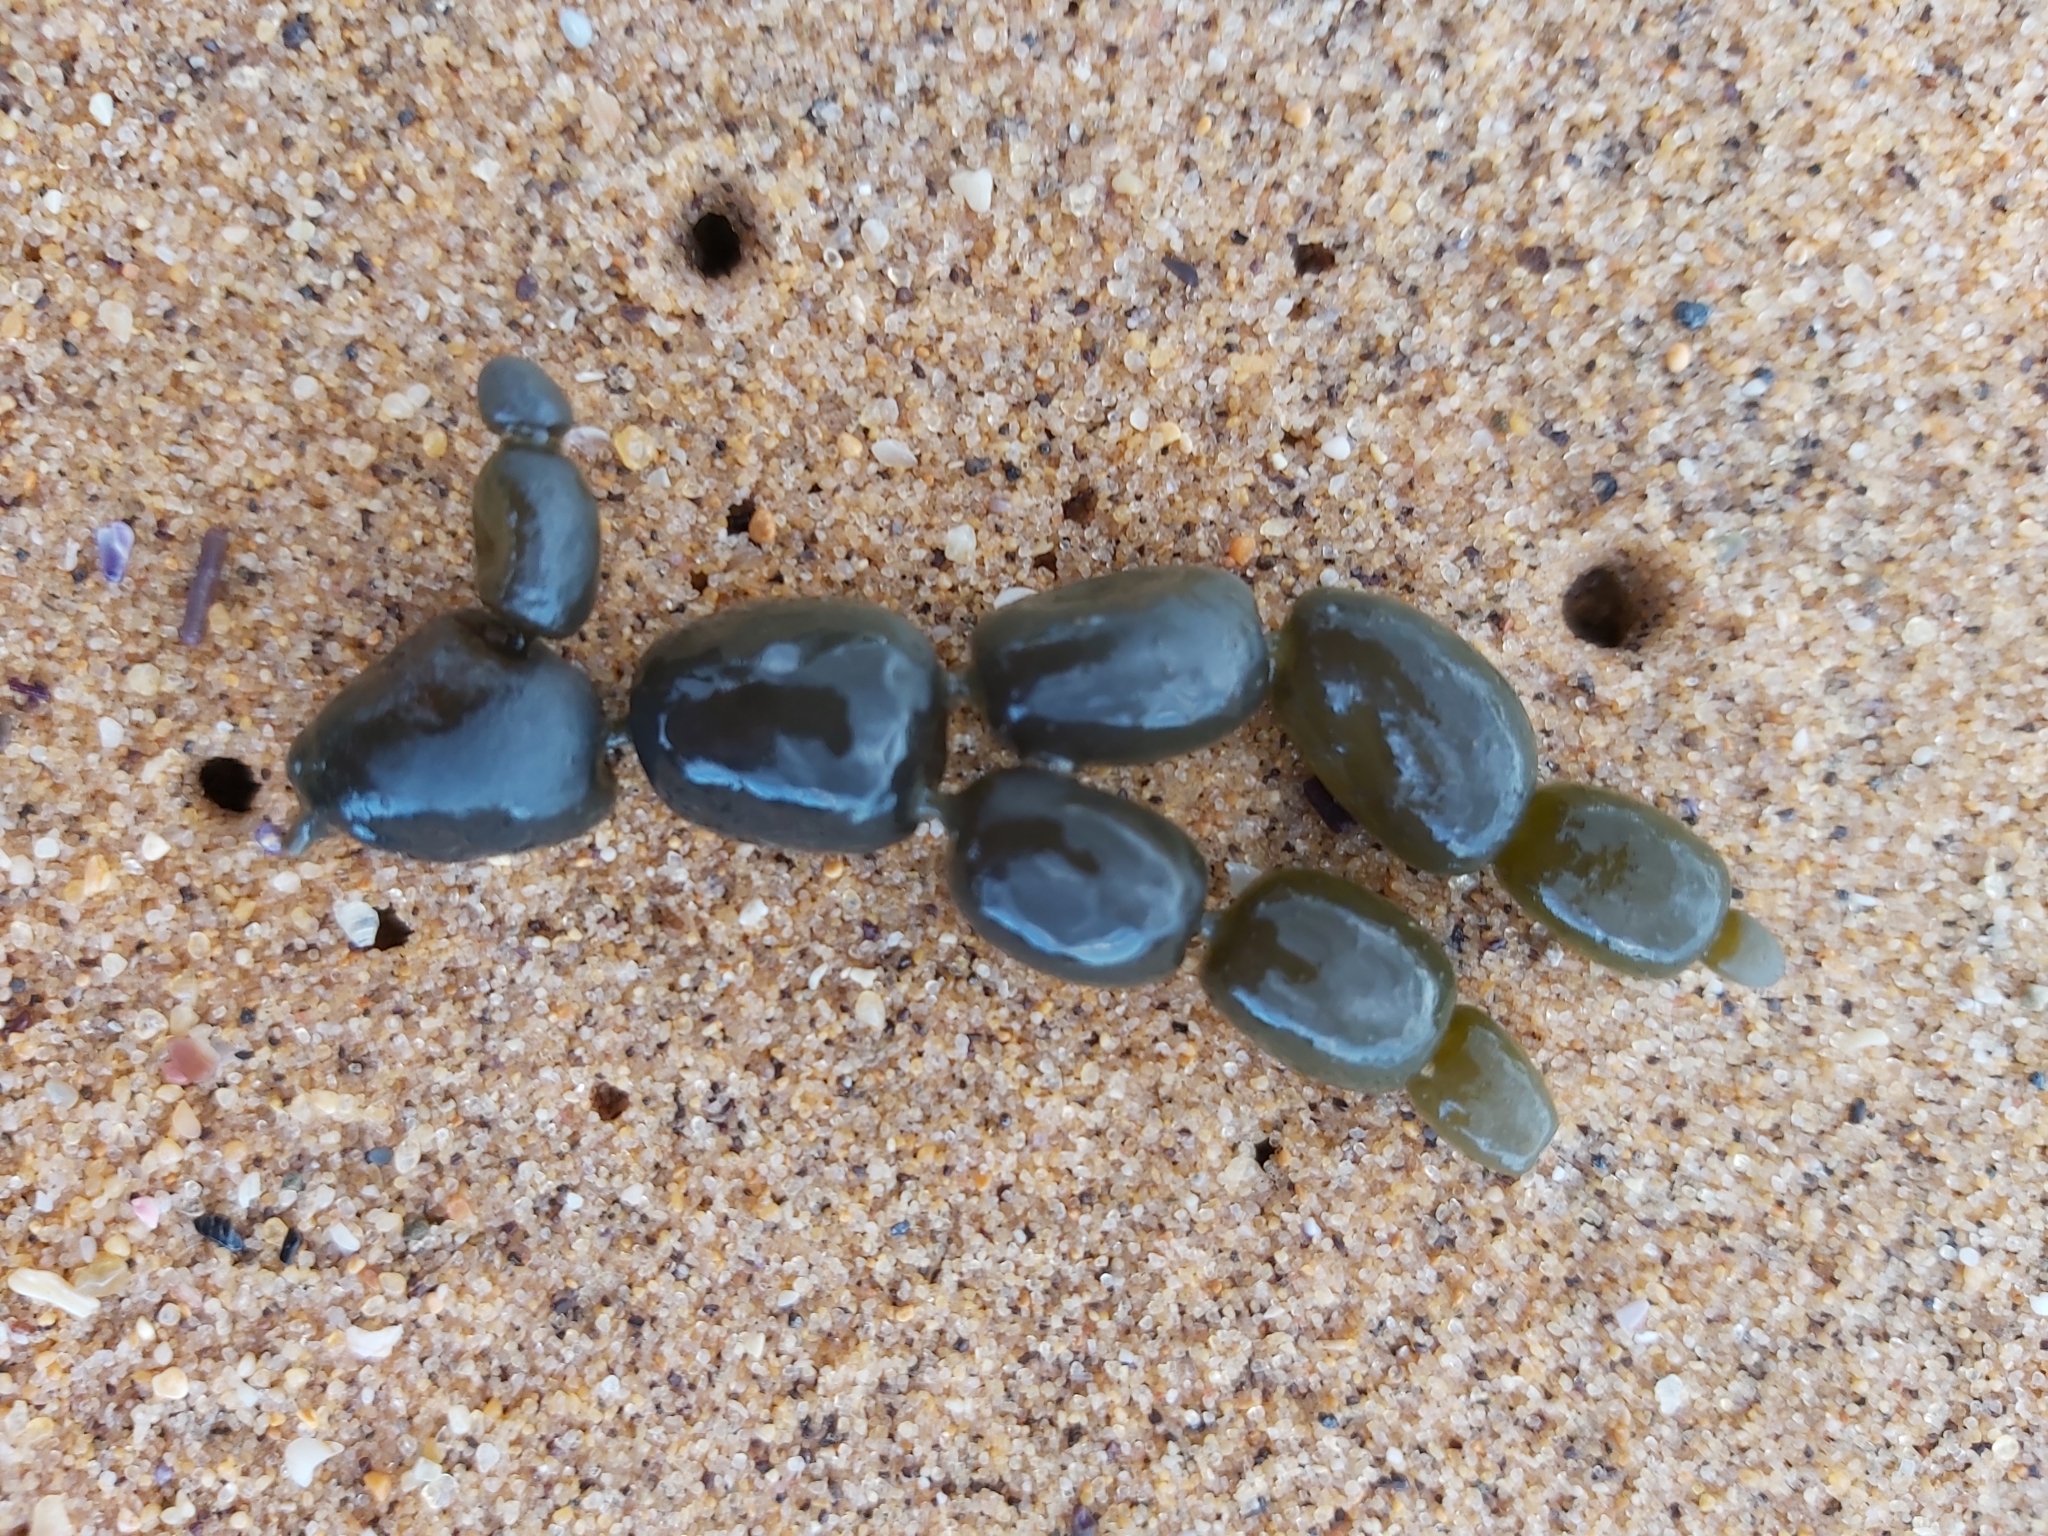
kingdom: Chromista
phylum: Ochrophyta
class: Phaeophyceae
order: Fucales
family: Hormosiraceae
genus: Hormosira
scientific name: Hormosira banksii
